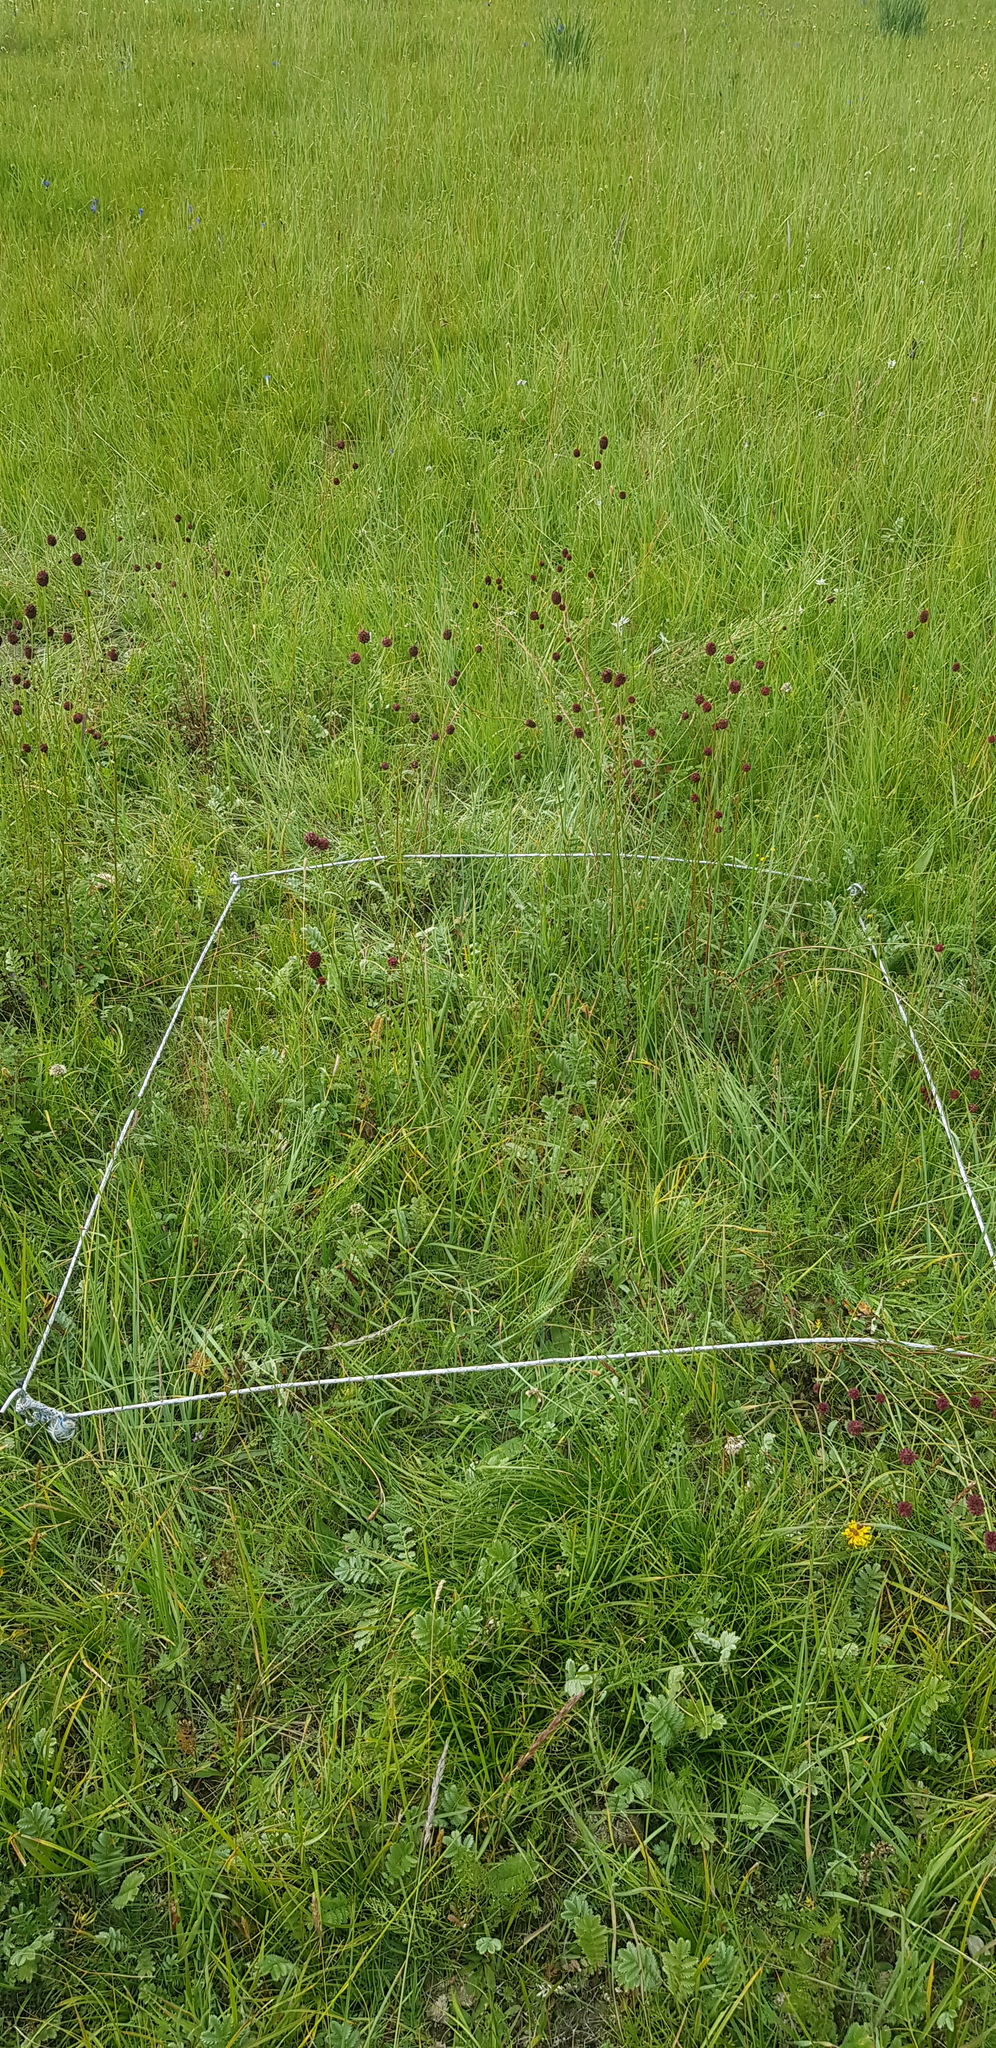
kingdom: Plantae
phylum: Tracheophyta
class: Magnoliopsida
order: Rosales
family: Rosaceae
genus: Sanguisorba
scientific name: Sanguisorba officinalis
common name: Great burnet
